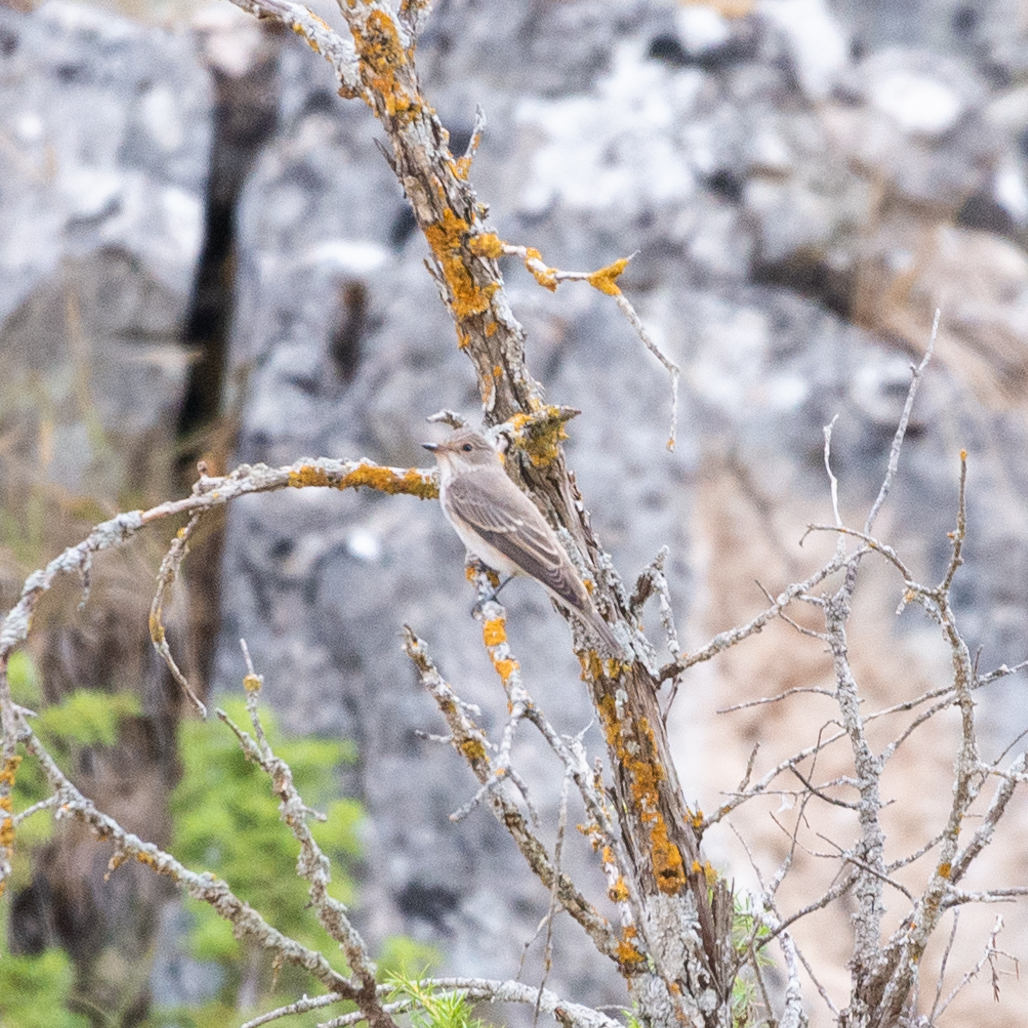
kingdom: Animalia
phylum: Chordata
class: Aves
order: Passeriformes
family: Muscicapidae
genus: Muscicapa
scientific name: Muscicapa striata
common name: Spotted flycatcher
